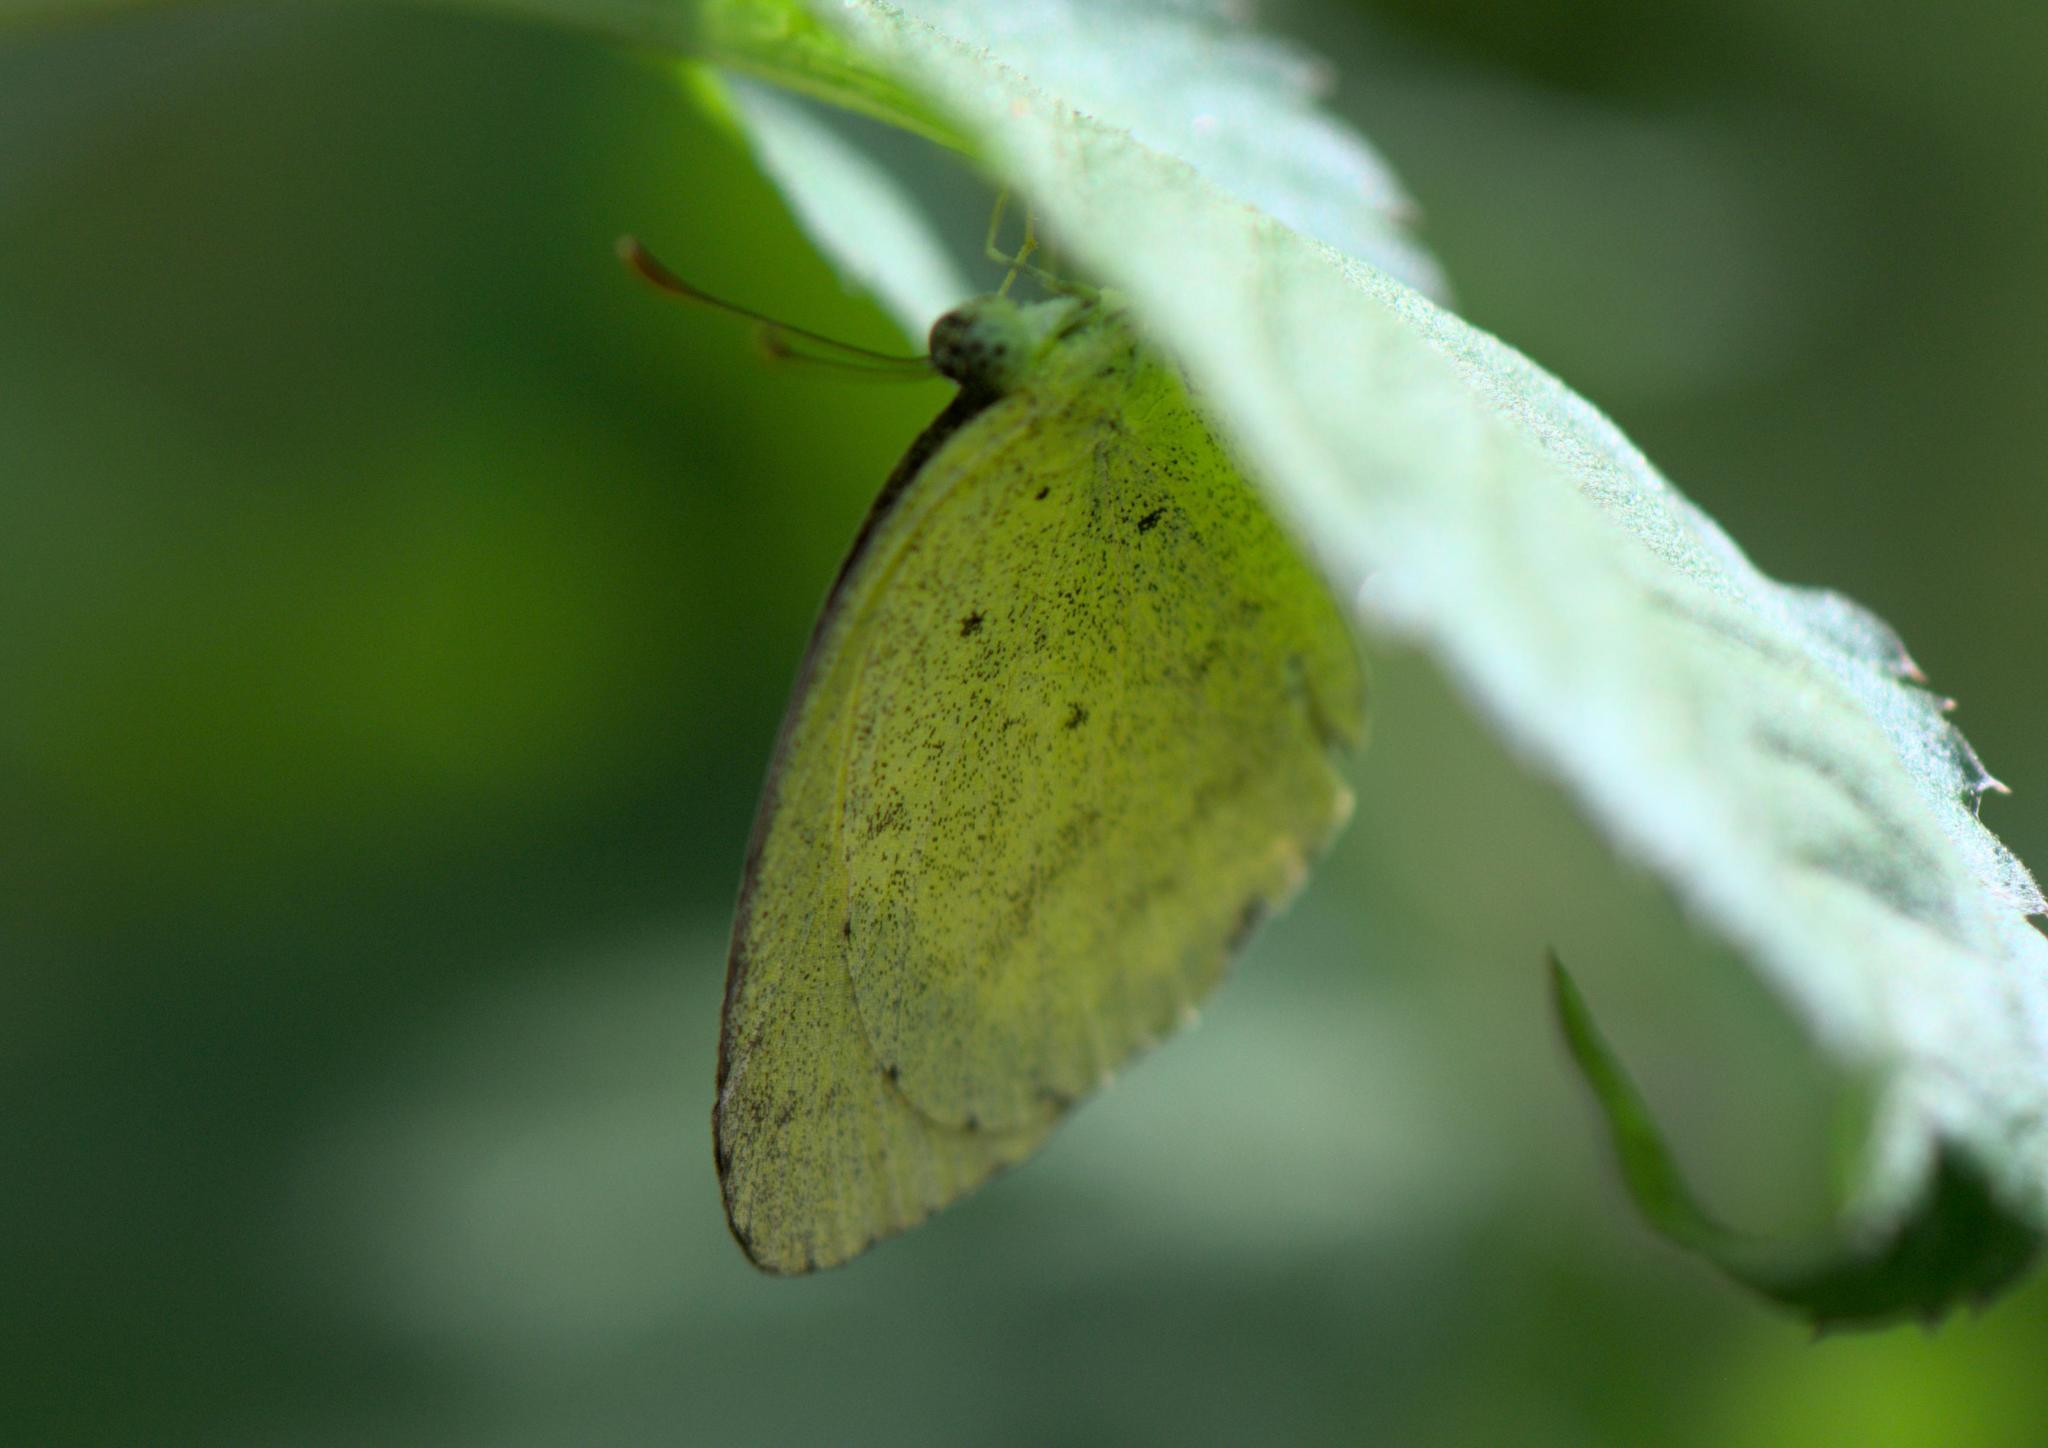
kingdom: Animalia
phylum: Arthropoda
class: Insecta
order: Lepidoptera
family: Pieridae
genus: Eurema
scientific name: Eurema brigitta
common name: Small grass yellow
